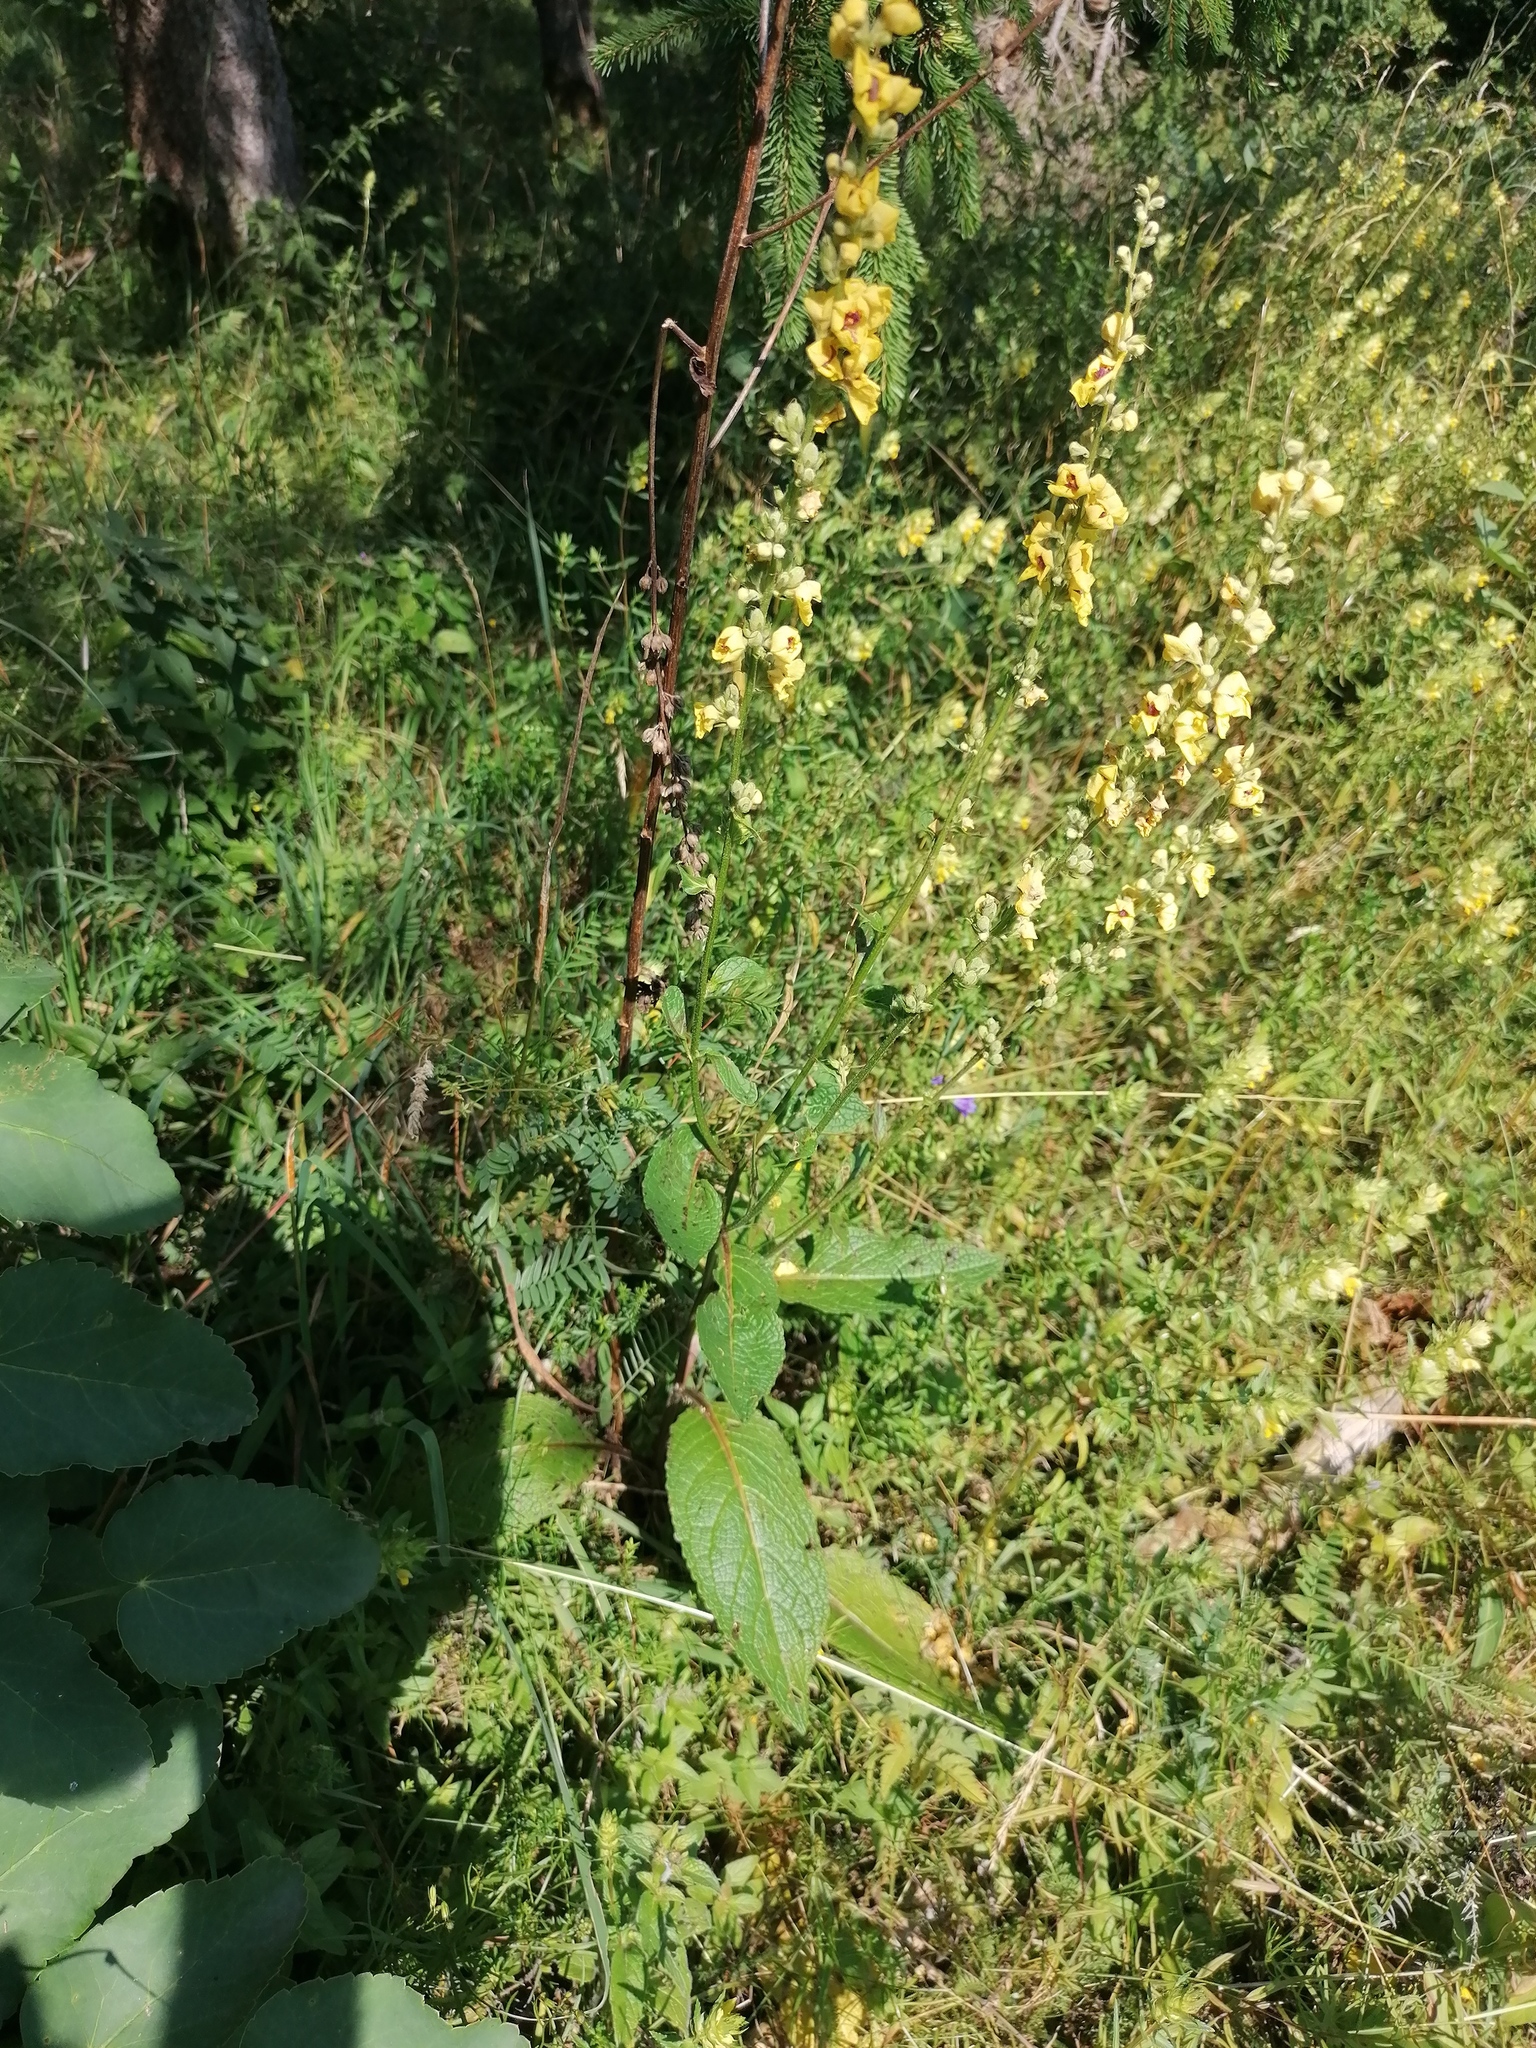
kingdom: Plantae
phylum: Tracheophyta
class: Magnoliopsida
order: Lamiales
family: Scrophulariaceae
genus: Verbascum
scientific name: Verbascum chaixii
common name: Nettle-leaved mullein
